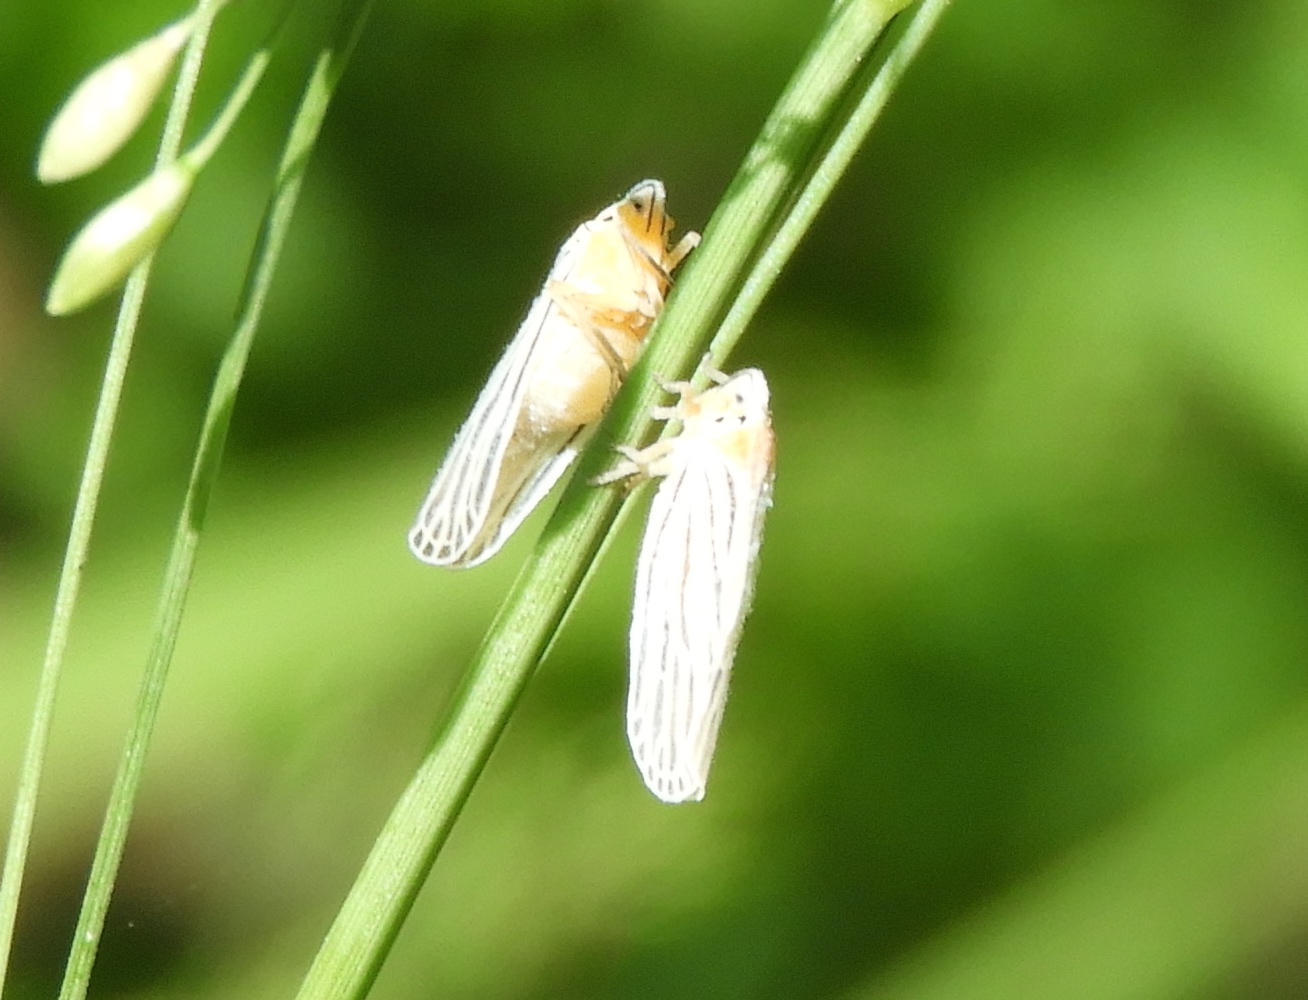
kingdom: Animalia
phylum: Arthropoda
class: Insecta
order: Hemiptera
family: Derbidae
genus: Persis
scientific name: Persis
